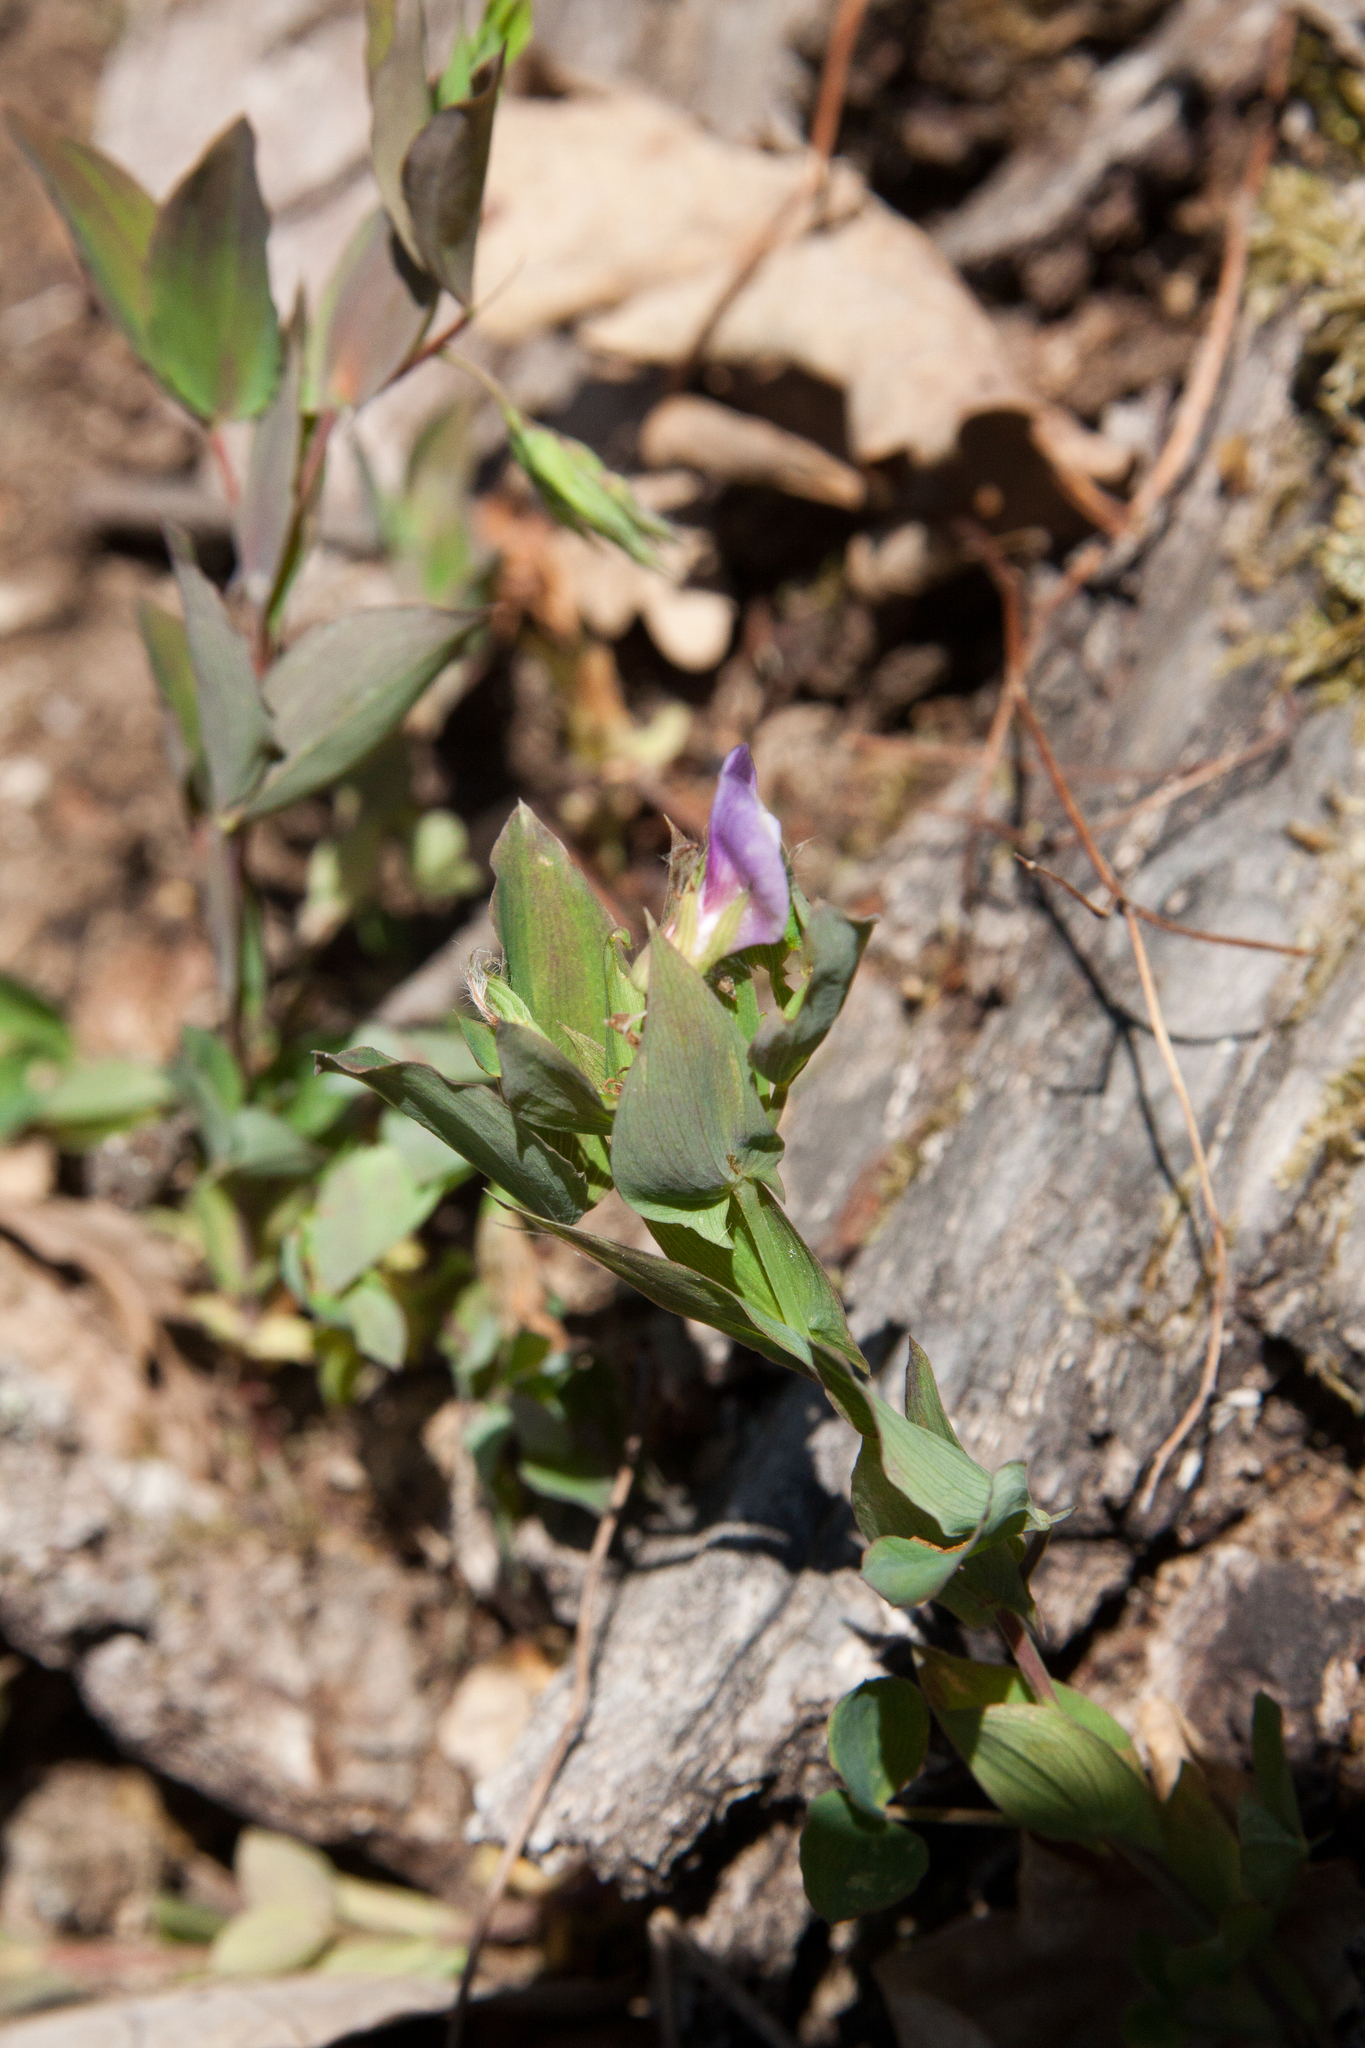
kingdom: Plantae
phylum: Tracheophyta
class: Magnoliopsida
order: Fabales
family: Fabaceae
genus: Lathyrus
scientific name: Lathyrus laxiflorus
